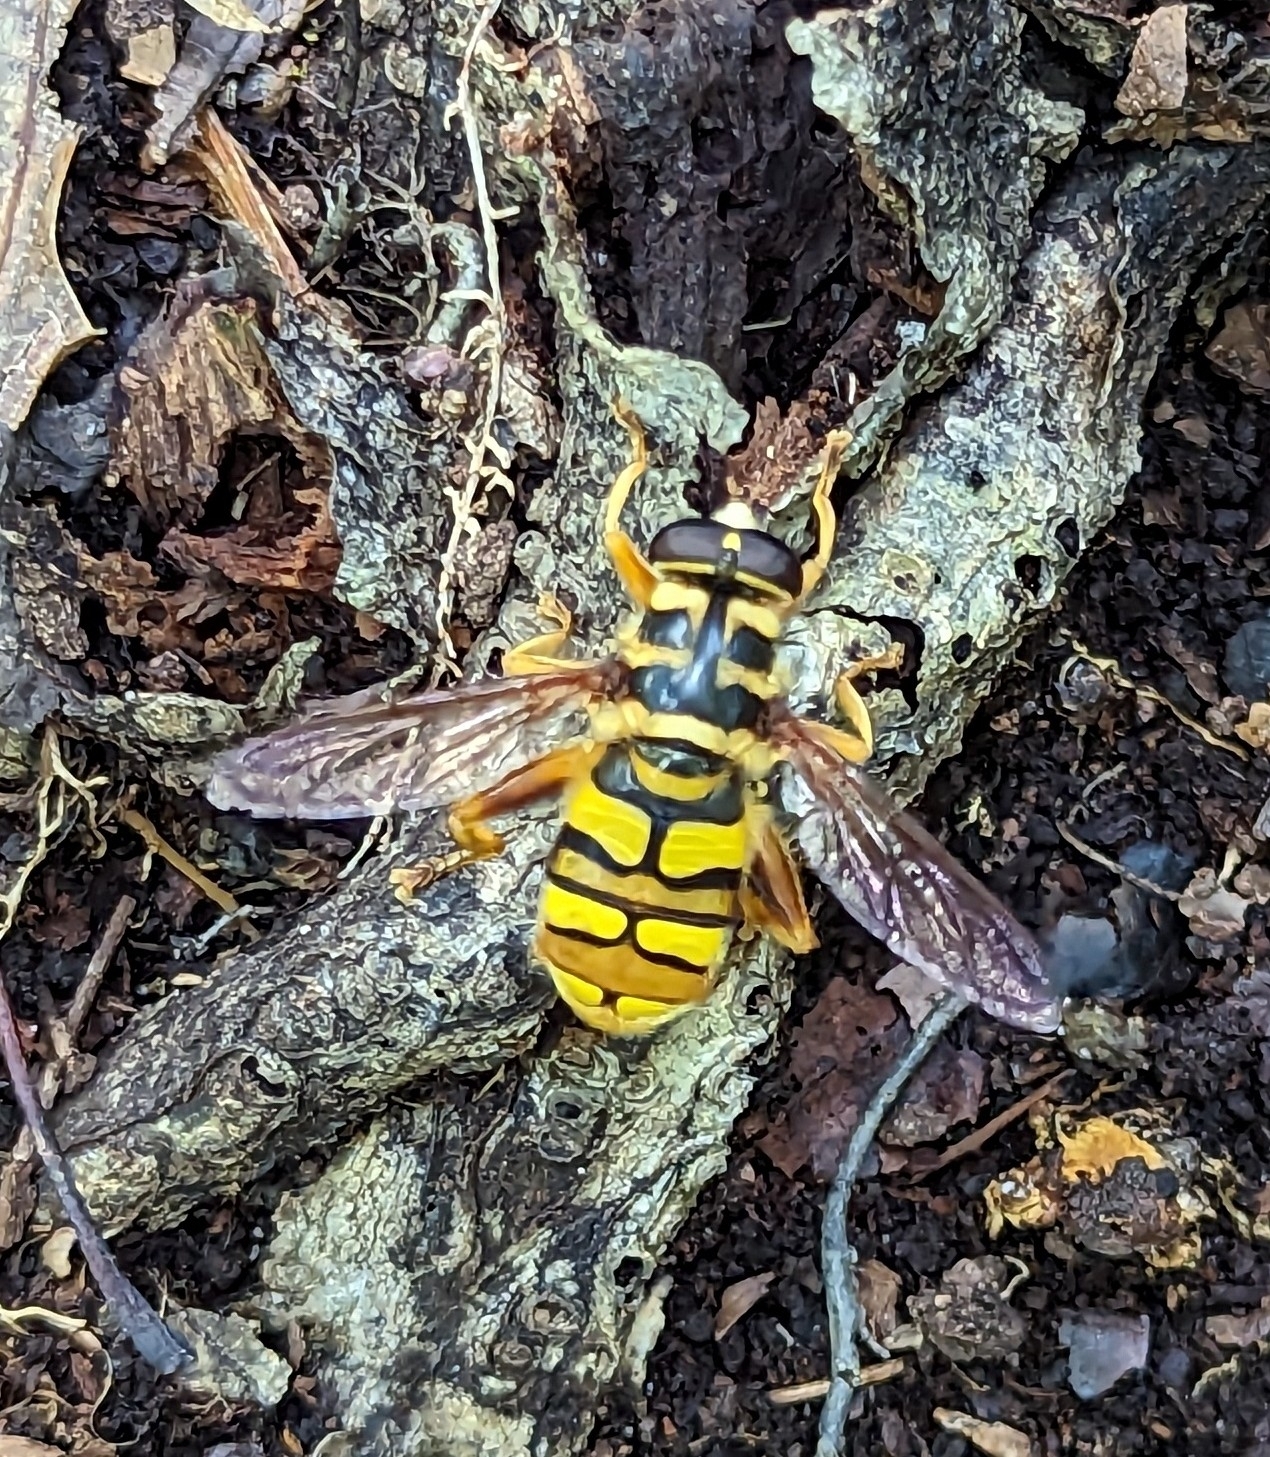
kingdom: Animalia
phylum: Arthropoda
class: Insecta
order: Diptera
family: Syrphidae
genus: Milesia
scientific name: Milesia virginiensis
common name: Virginia giant
